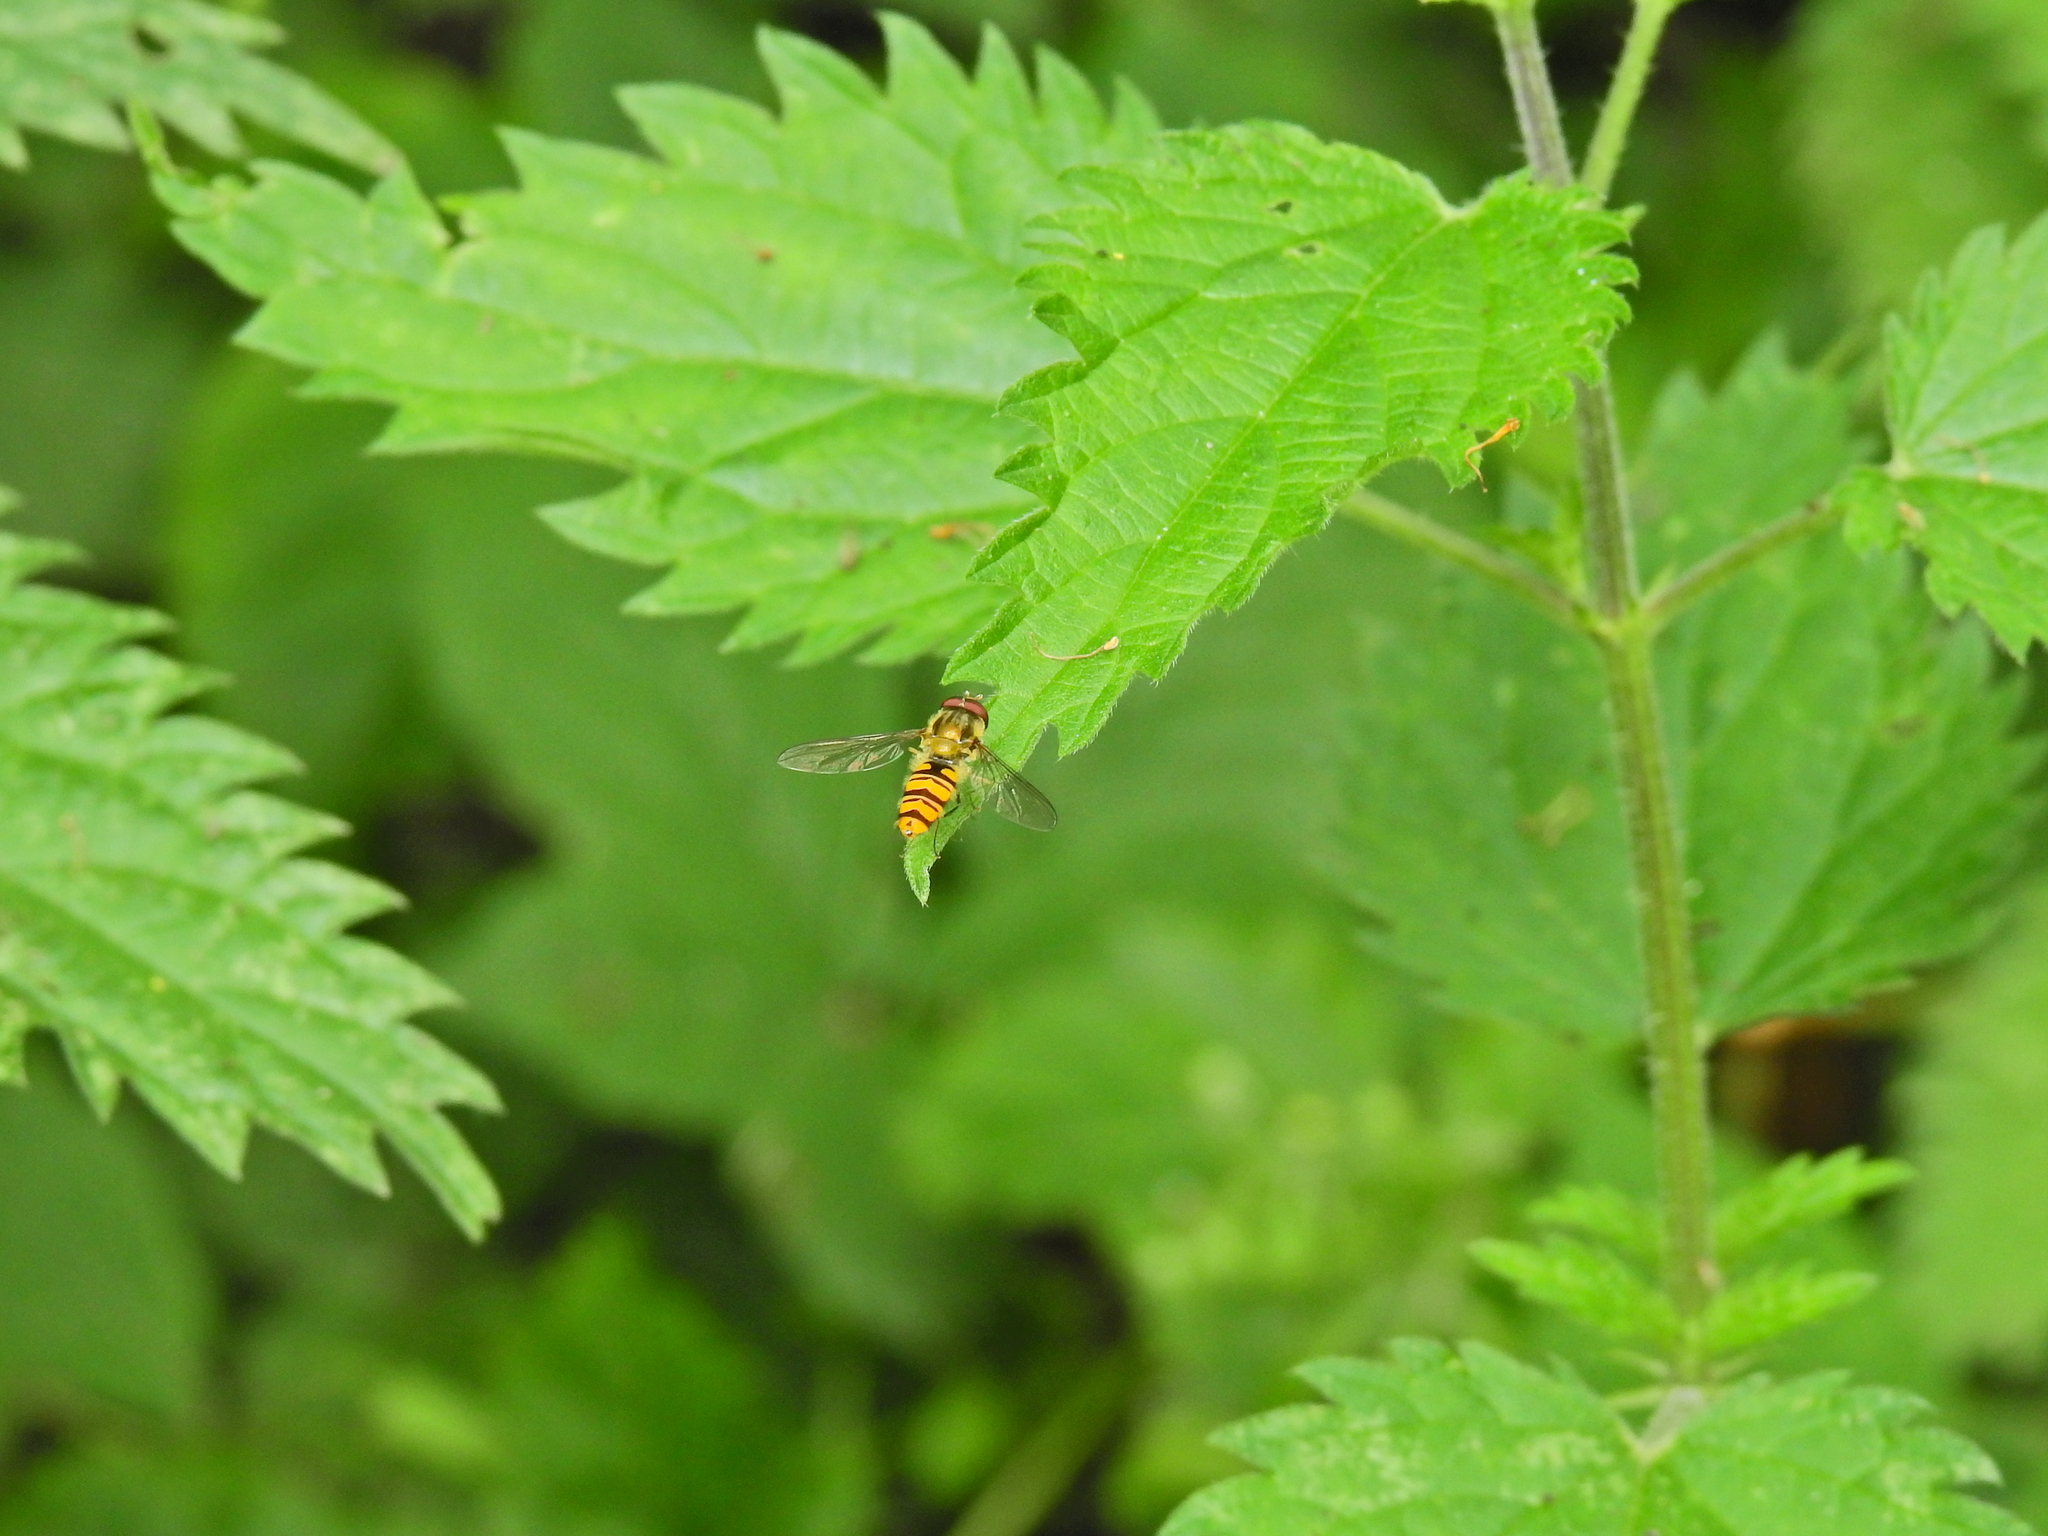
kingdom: Animalia
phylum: Arthropoda
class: Insecta
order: Diptera
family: Syrphidae
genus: Episyrphus
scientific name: Episyrphus balteatus
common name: Marmalade hoverfly
